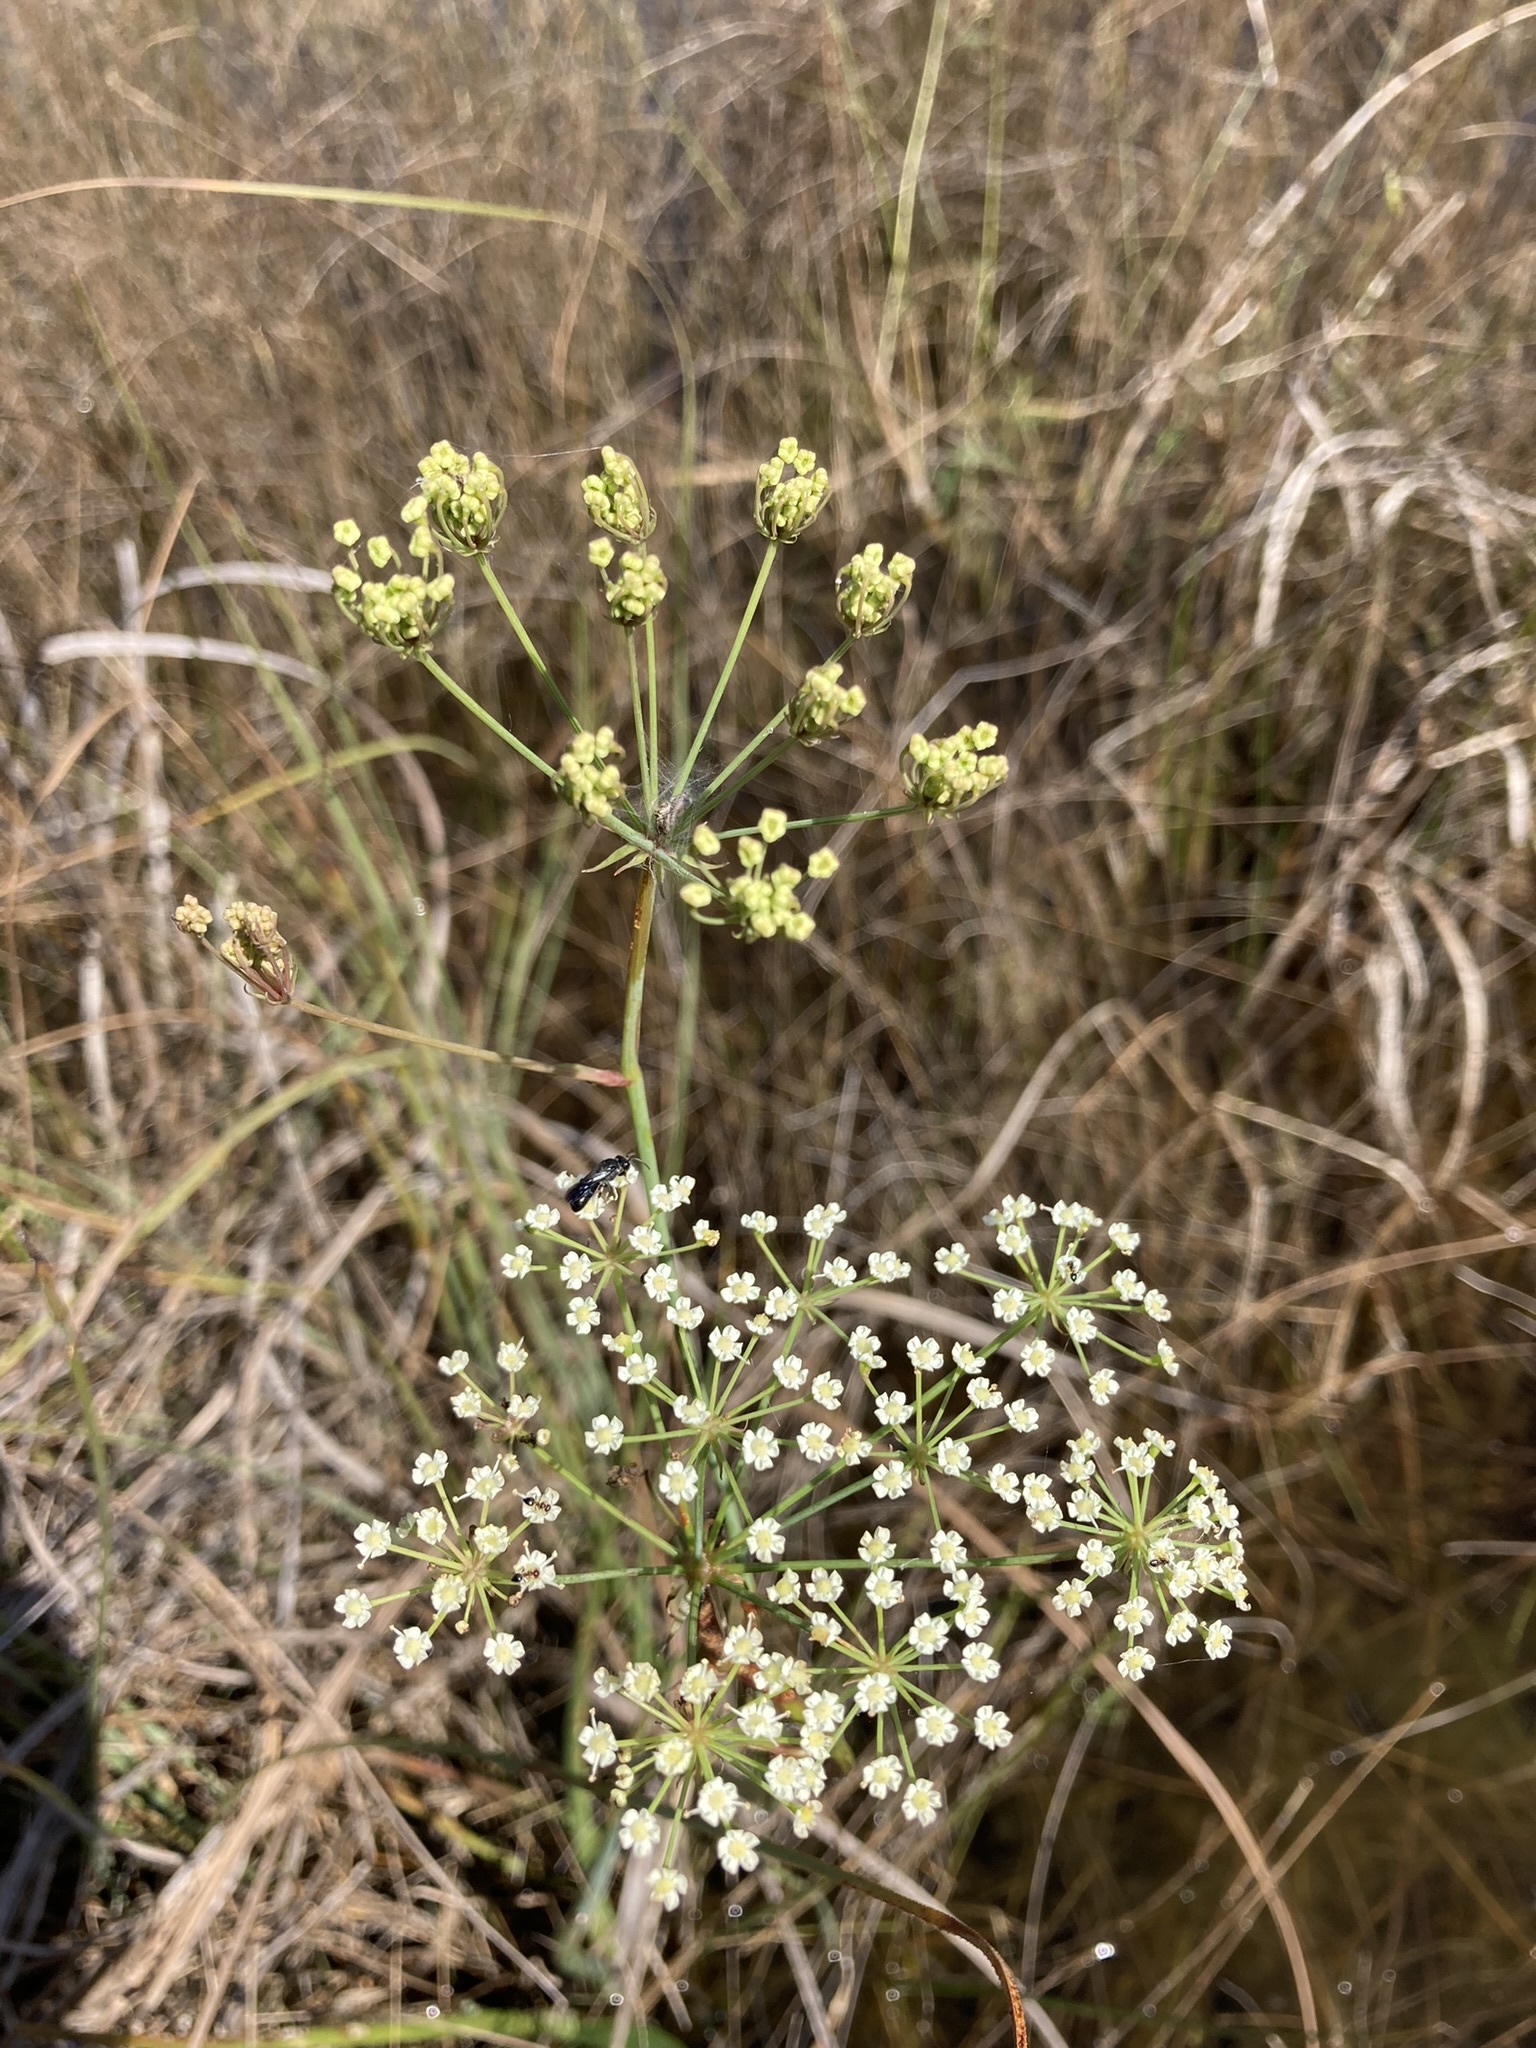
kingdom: Plantae
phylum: Tracheophyta
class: Magnoliopsida
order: Apiales
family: Apiaceae
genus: Tiedemannia
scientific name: Tiedemannia filiformis
